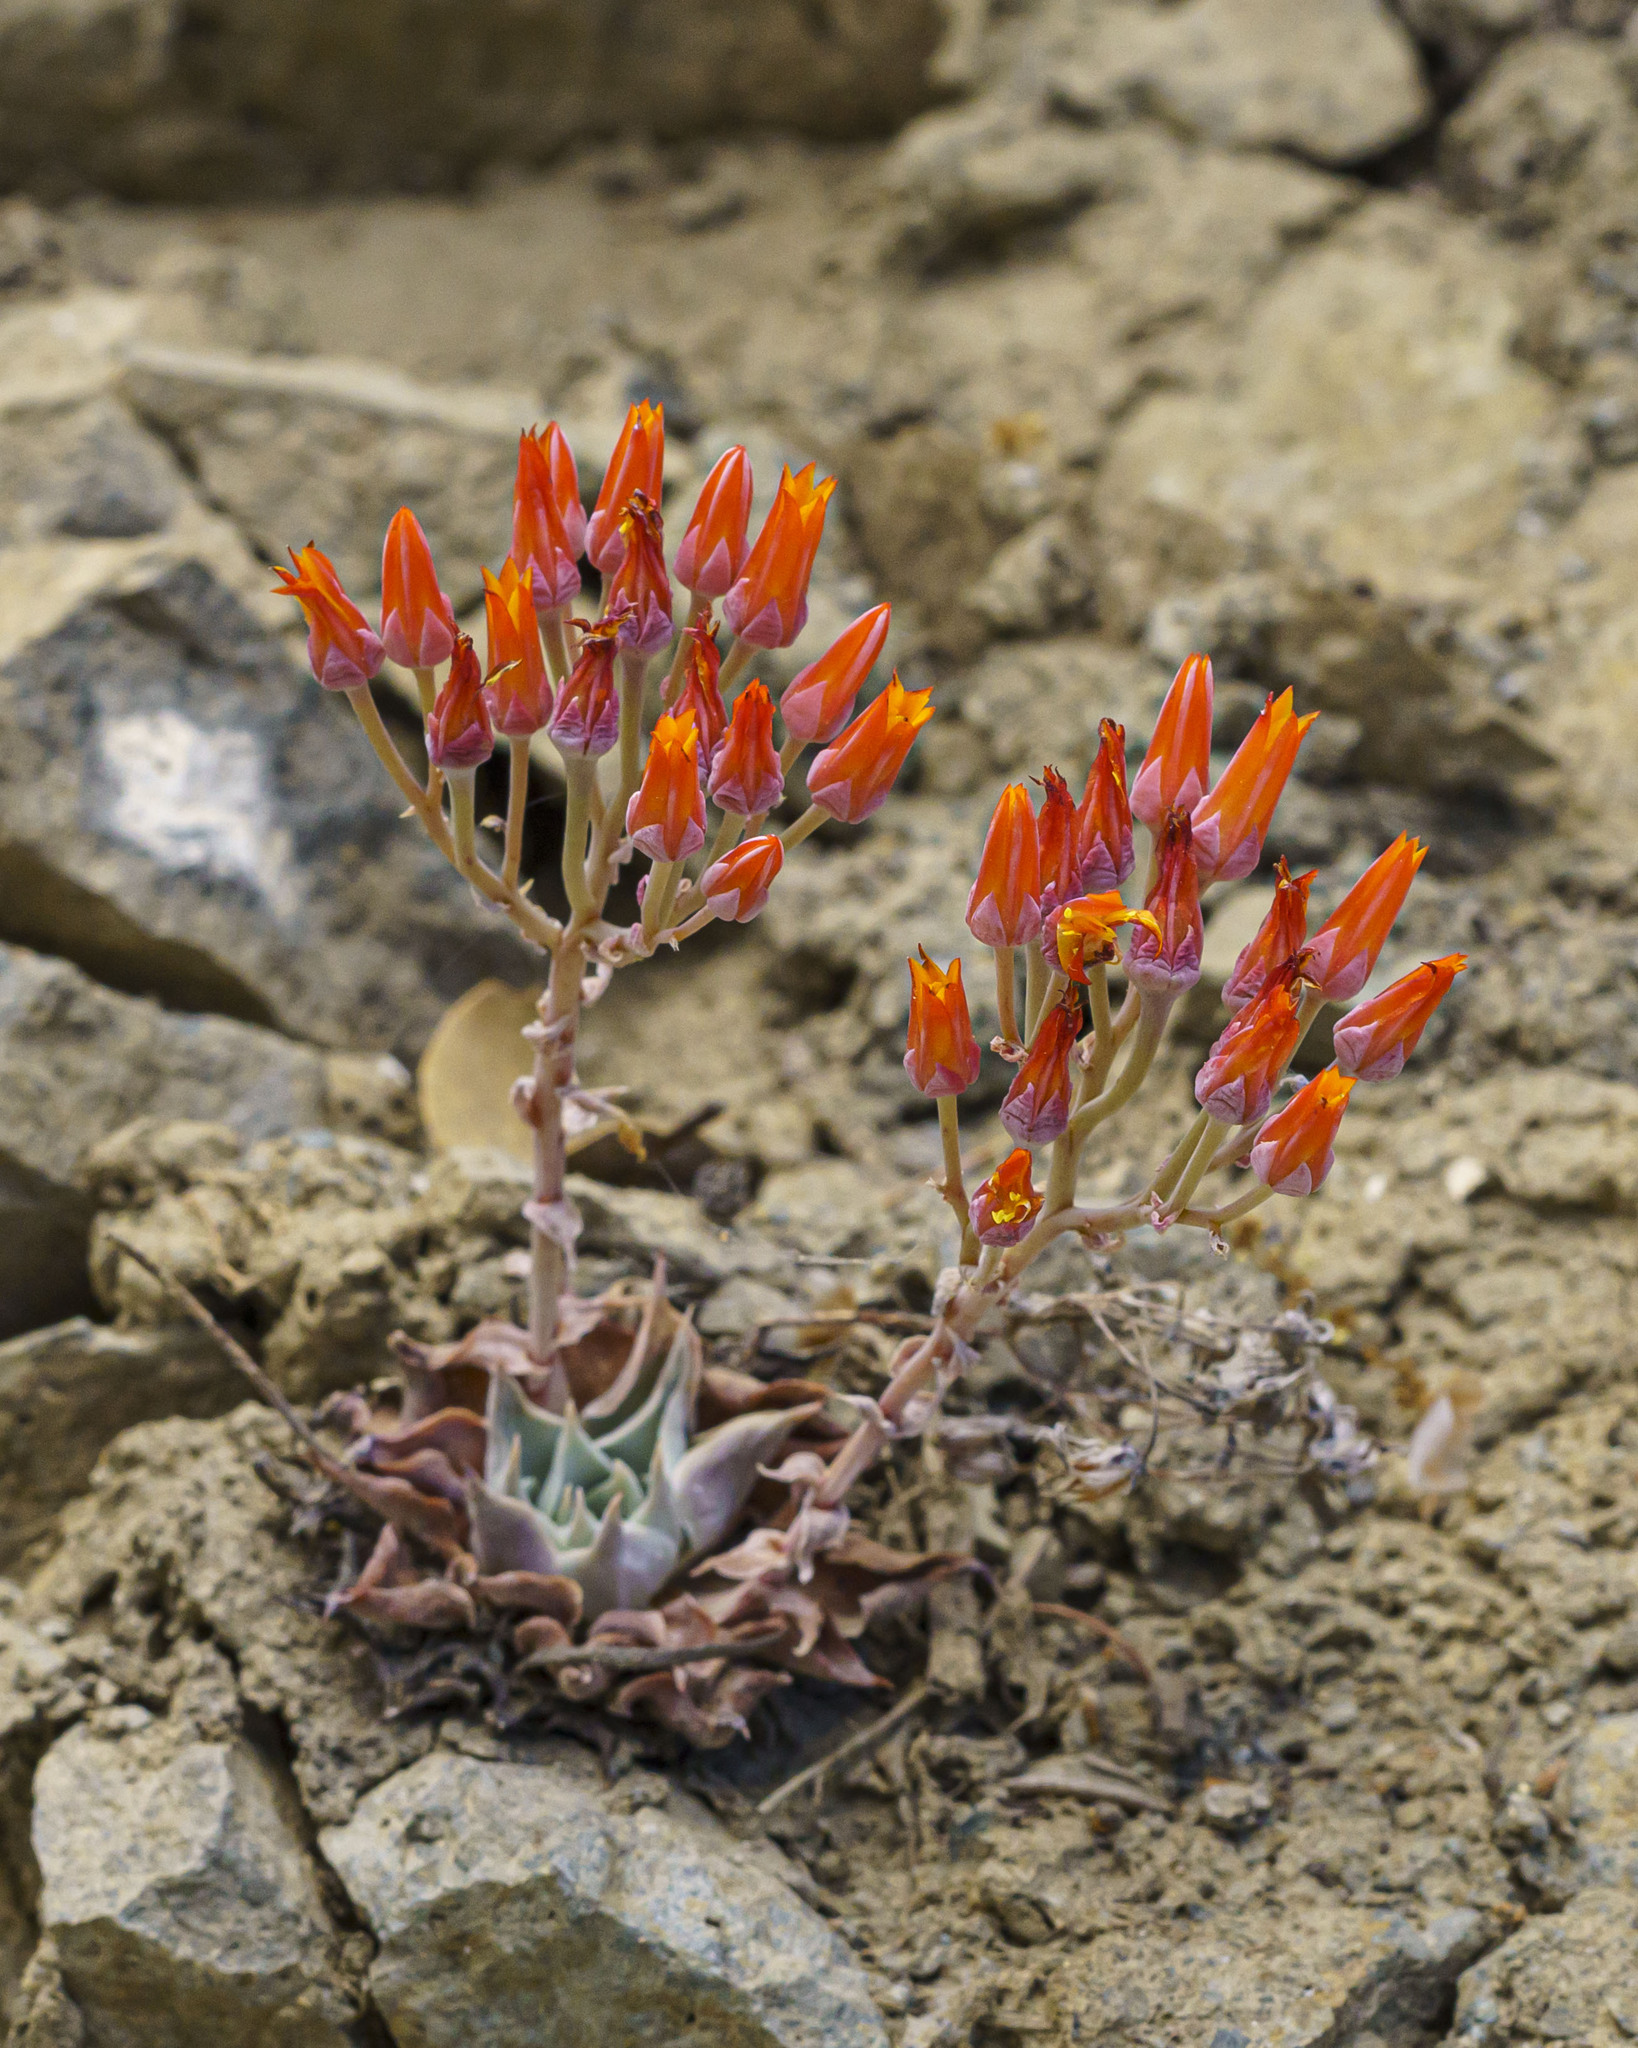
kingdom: Plantae
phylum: Tracheophyta
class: Magnoliopsida
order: Saxifragales
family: Crassulaceae
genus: Dudleya
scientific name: Dudleya cymosa
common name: Canyon dudleya
